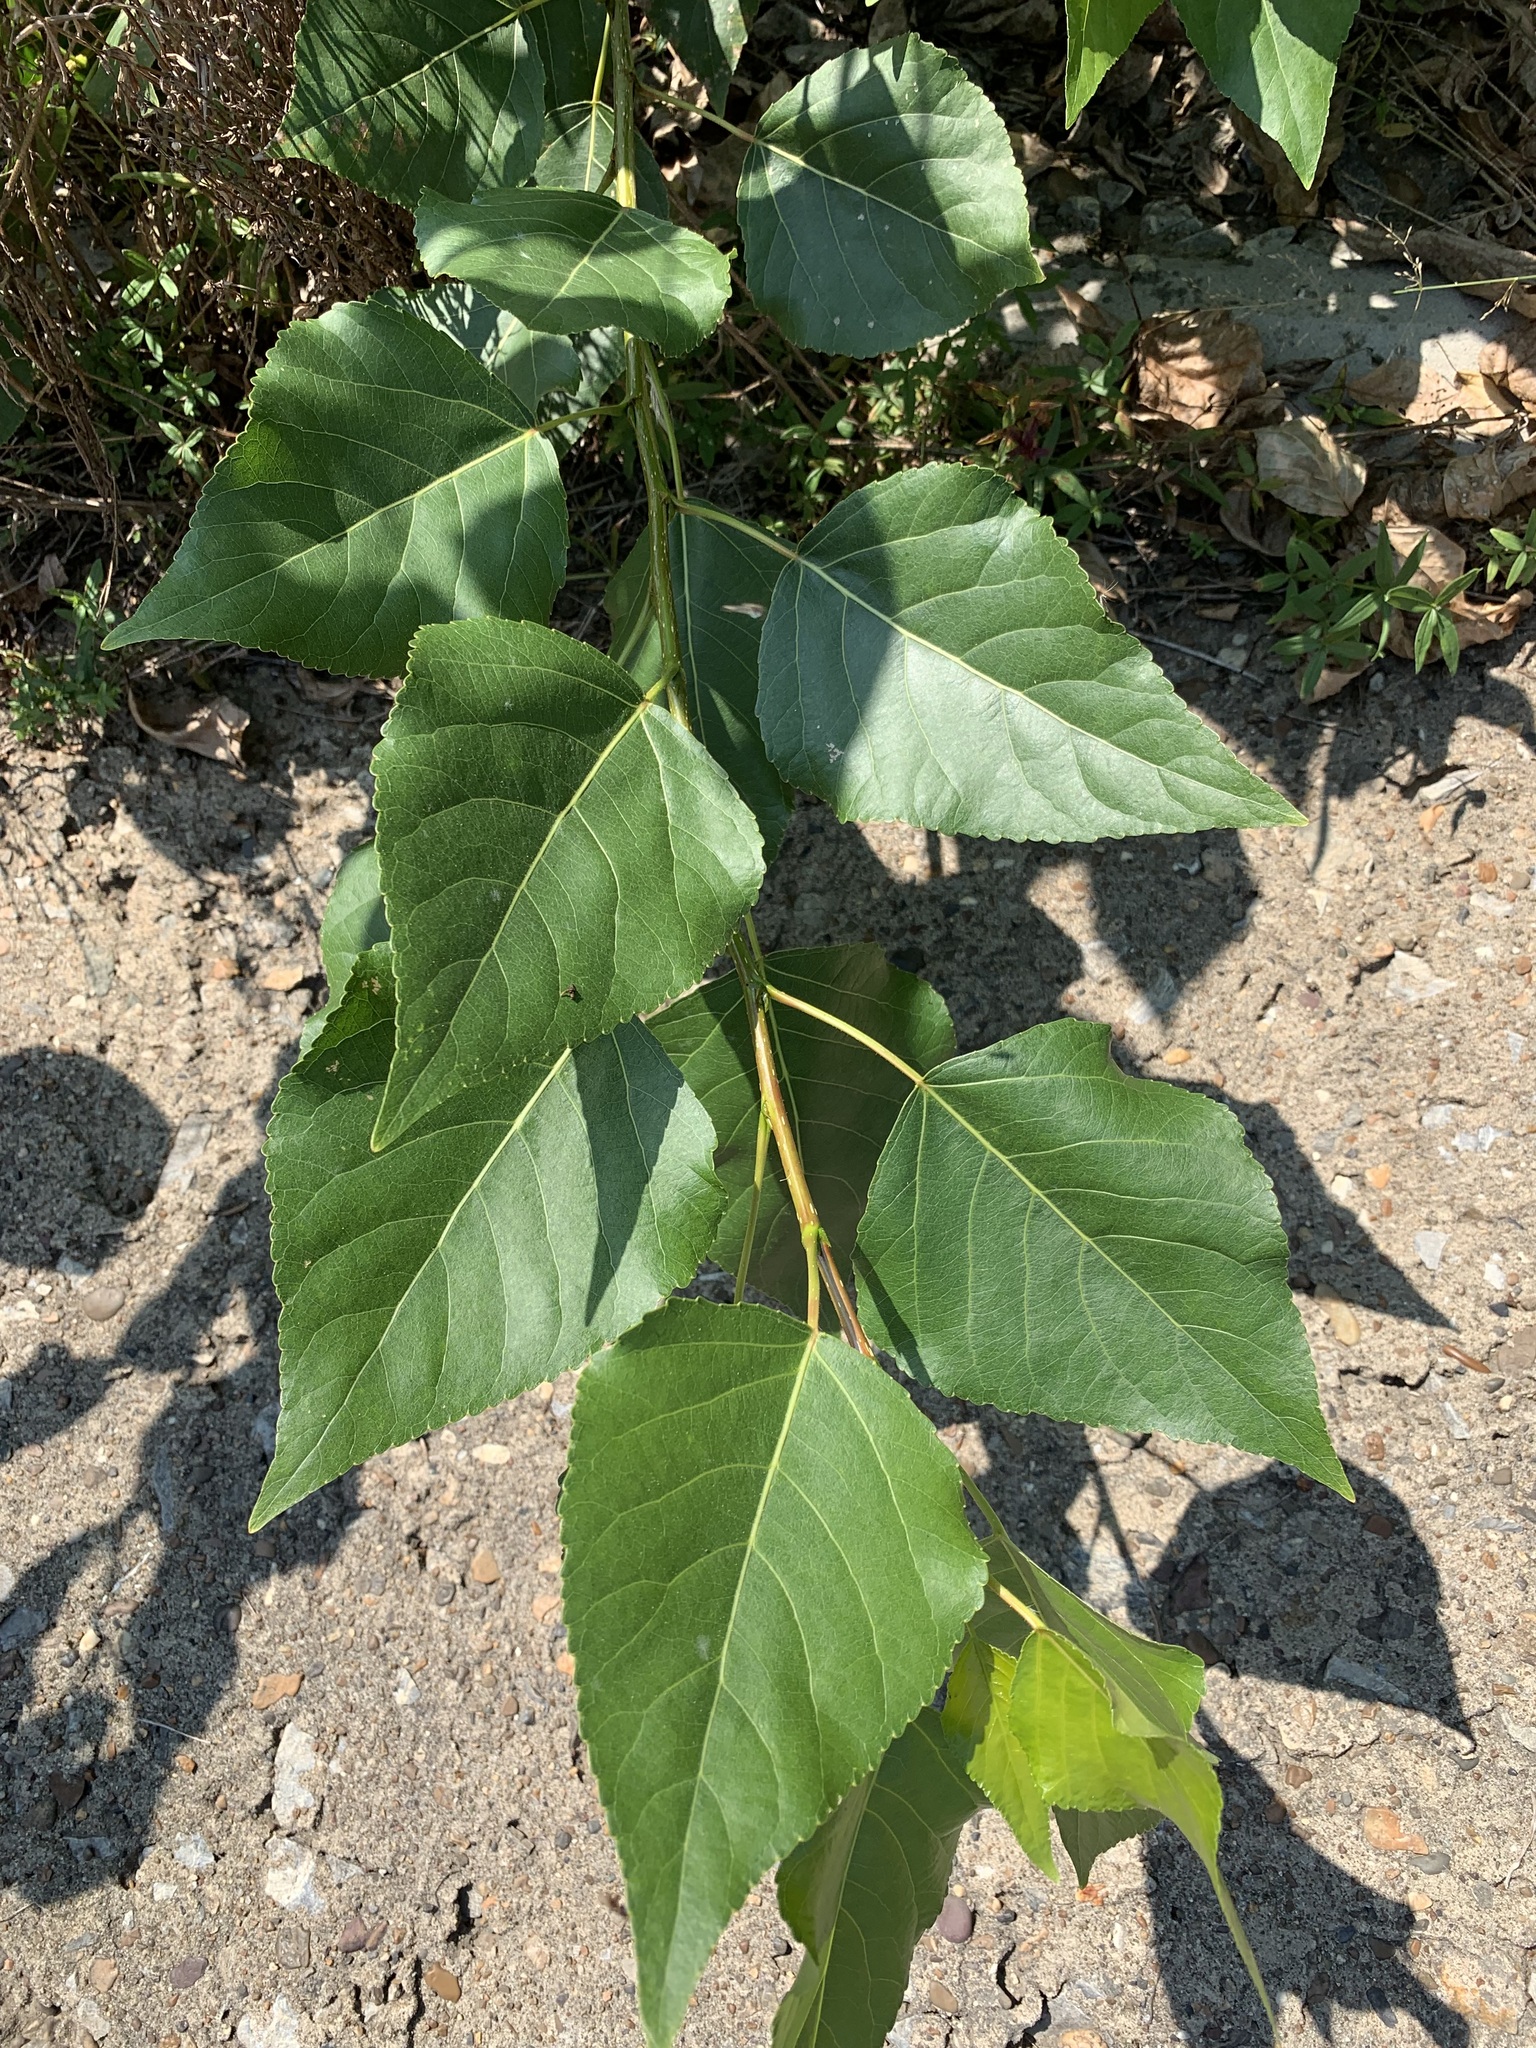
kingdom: Plantae
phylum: Tracheophyta
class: Magnoliopsida
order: Malpighiales
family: Salicaceae
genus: Populus
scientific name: Populus sibirica
